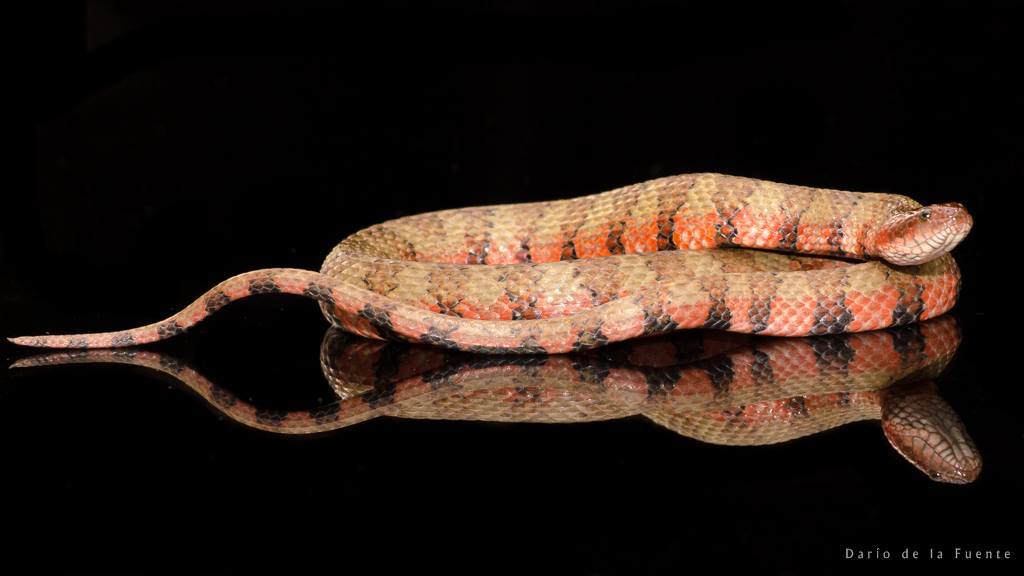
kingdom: Animalia
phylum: Chordata
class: Squamata
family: Colubridae
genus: Helicops
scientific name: Helicops angulatus
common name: Mountain keelback
